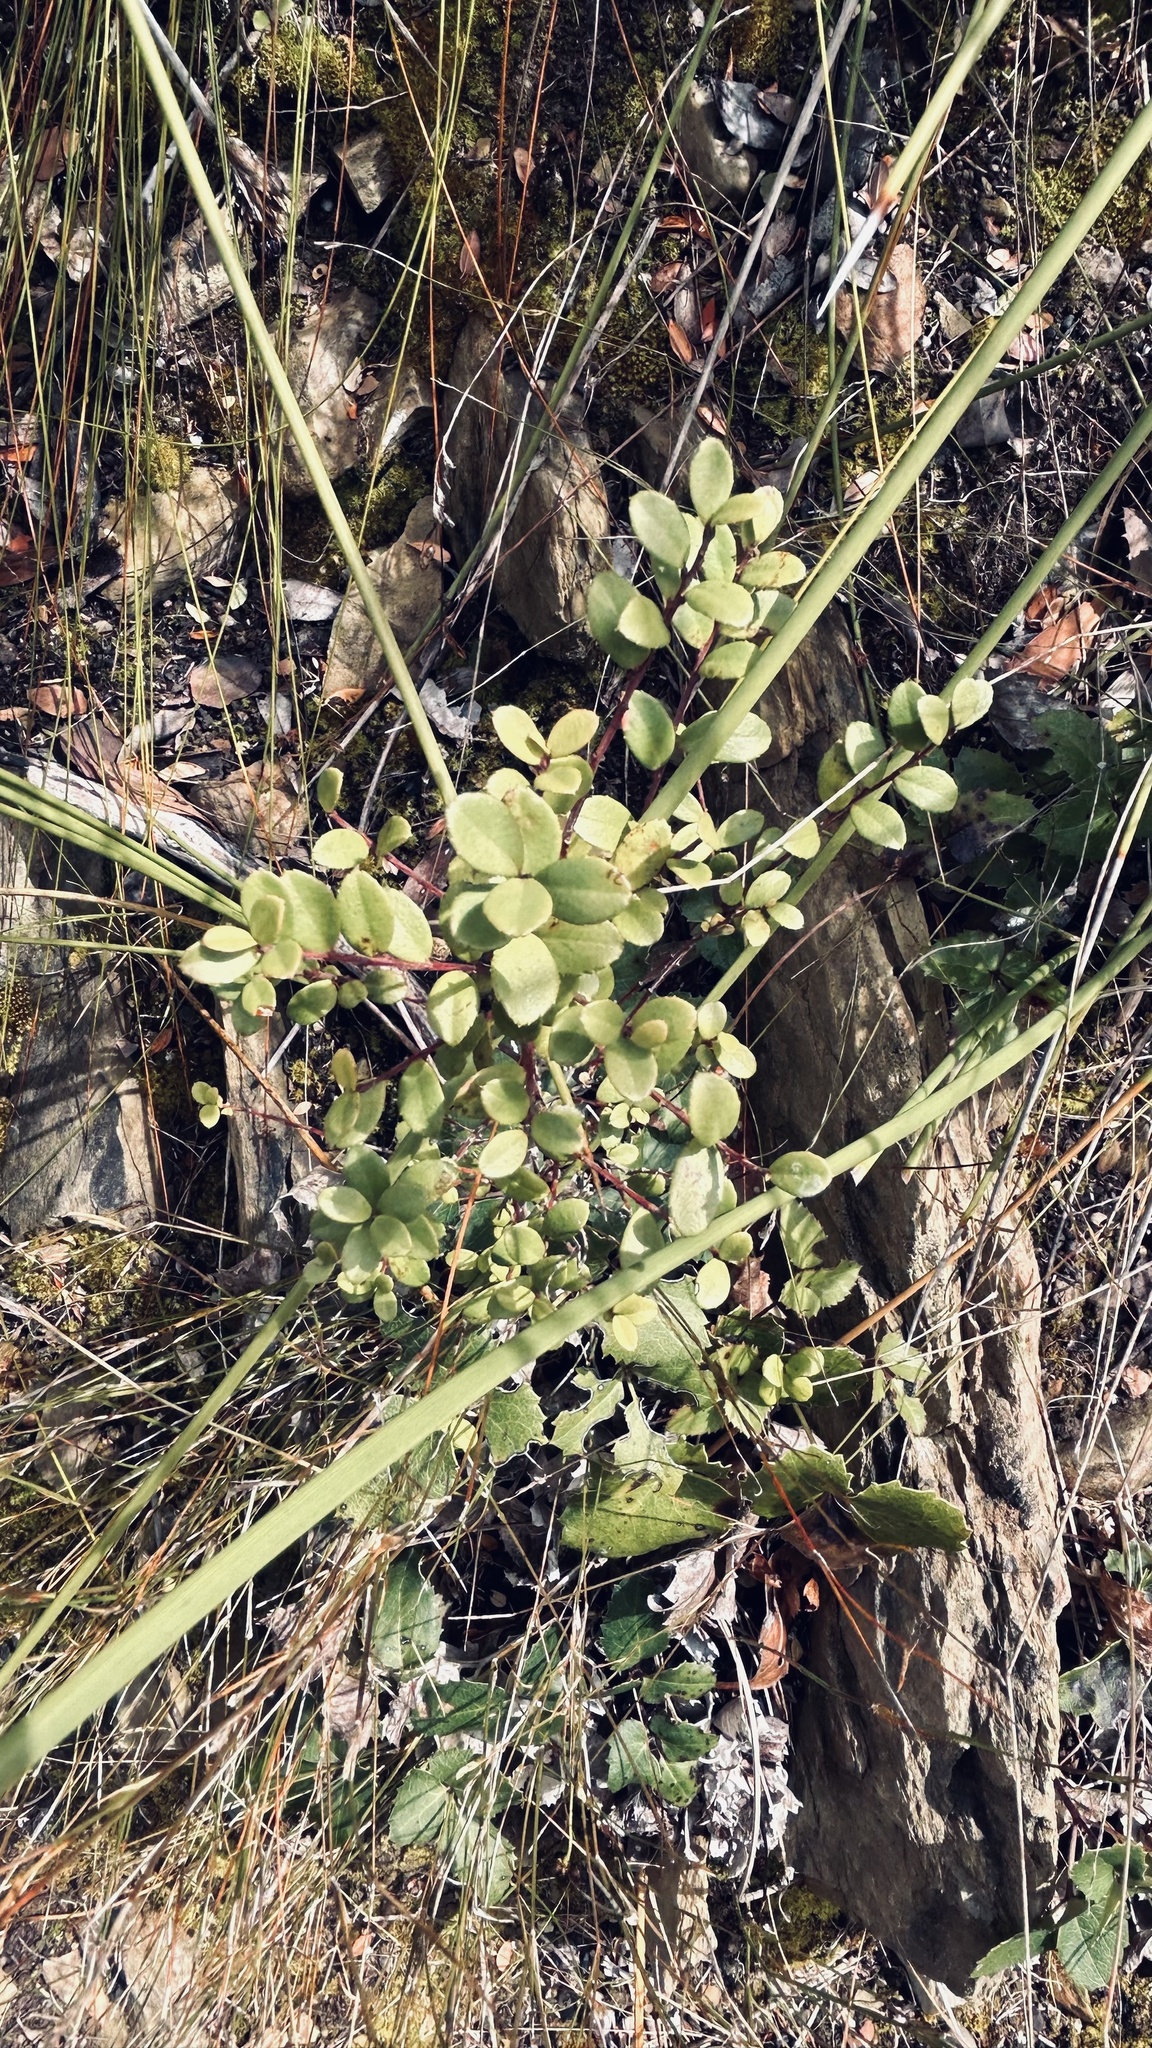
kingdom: Plantae
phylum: Tracheophyta
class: Magnoliopsida
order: Ericales
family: Primulaceae
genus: Myrsine
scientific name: Myrsine africana
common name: African-boxwood
